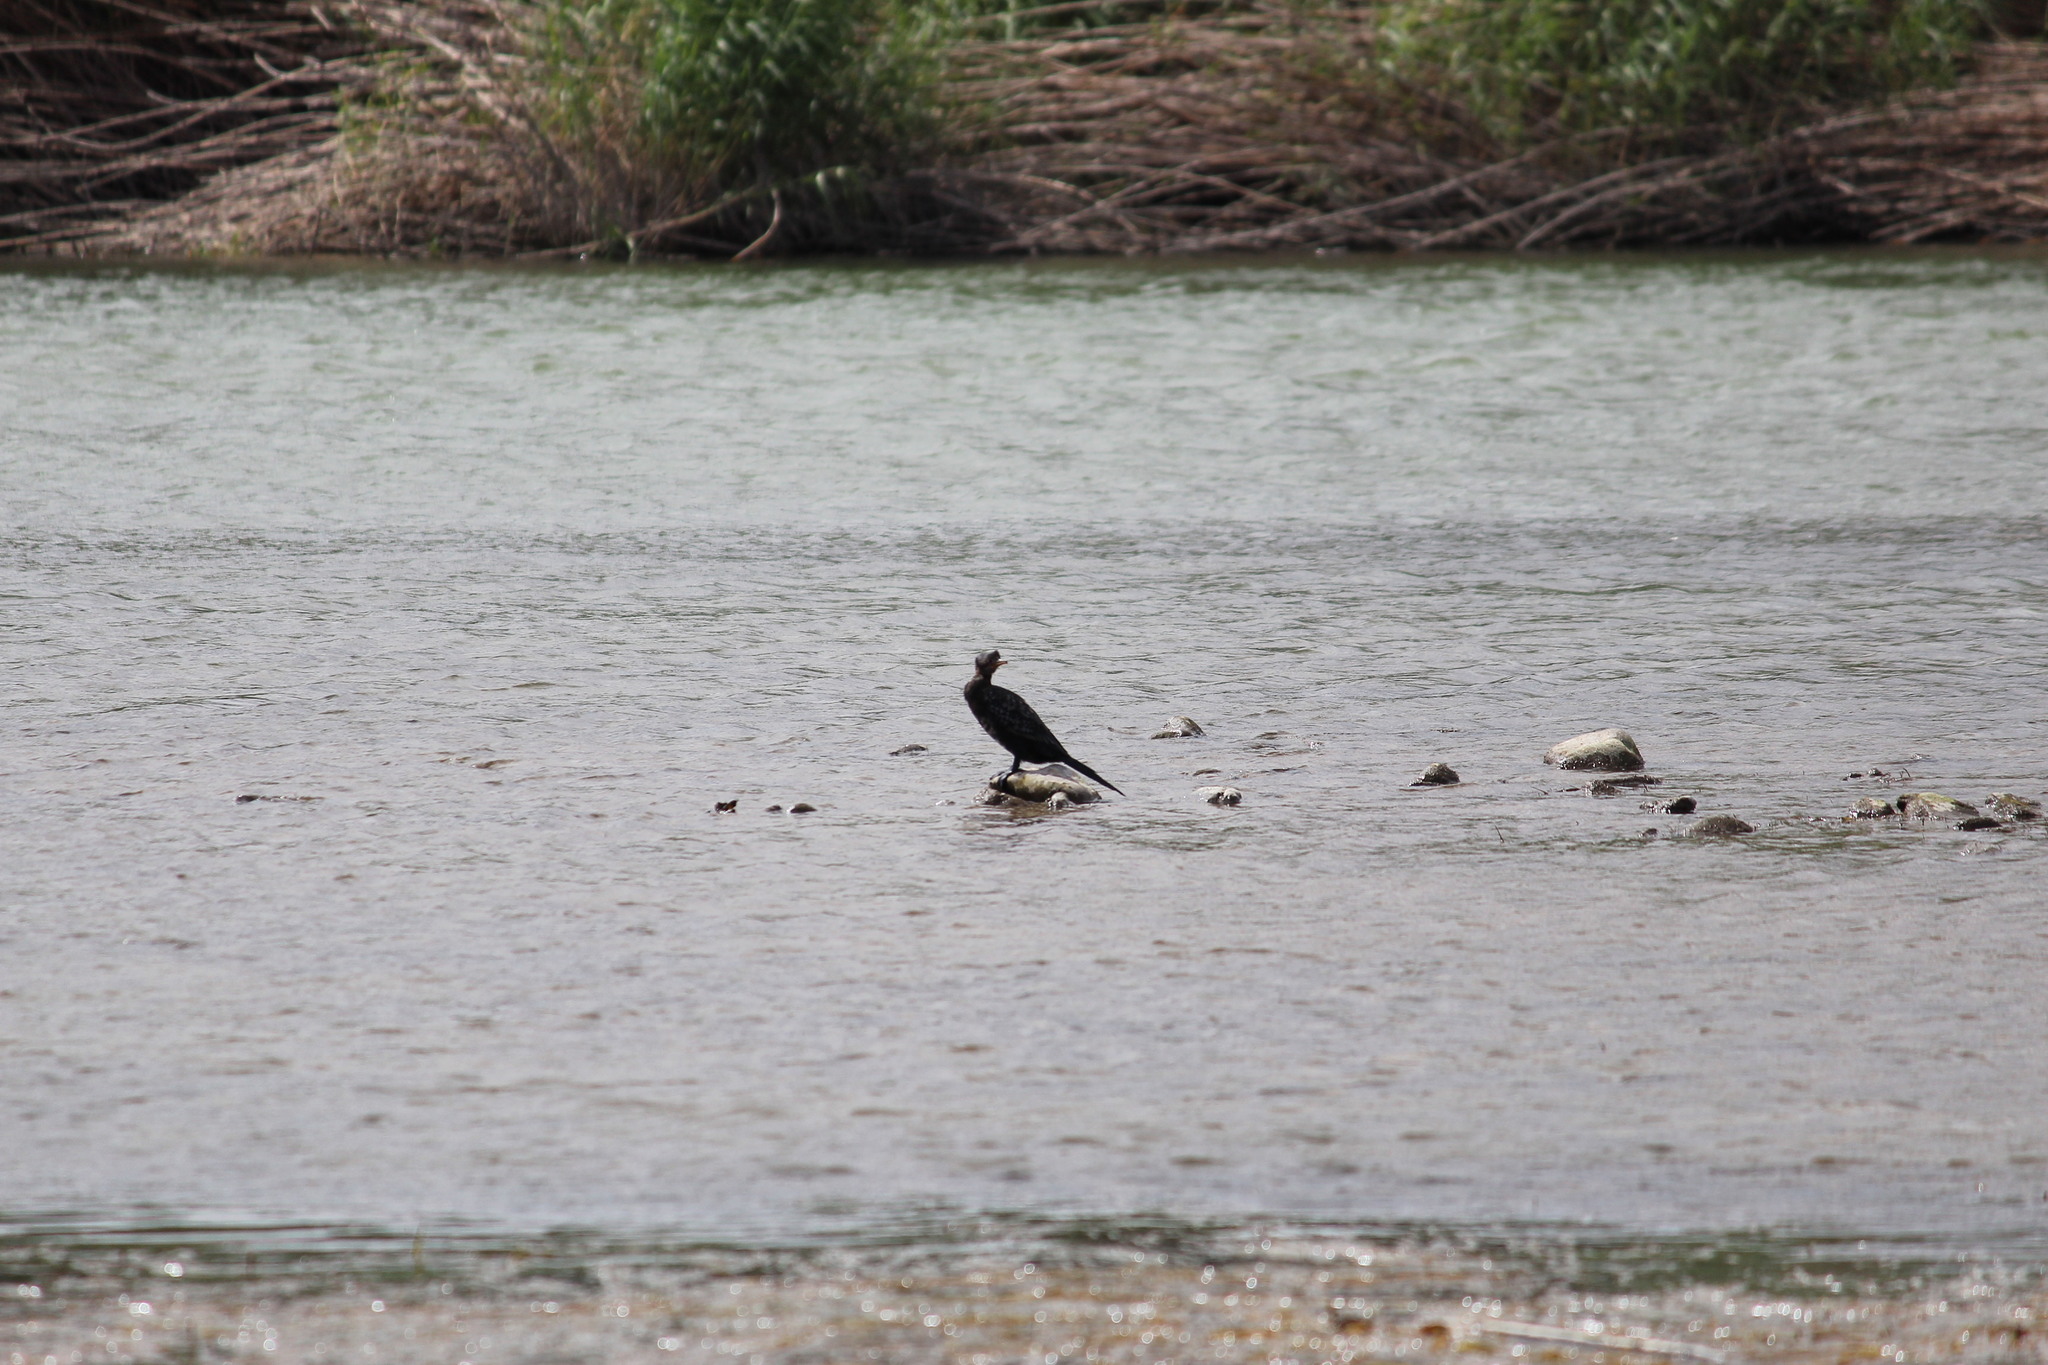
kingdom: Animalia
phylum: Chordata
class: Aves
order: Suliformes
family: Phalacrocoracidae
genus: Microcarbo
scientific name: Microcarbo africanus
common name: Long-tailed cormorant
